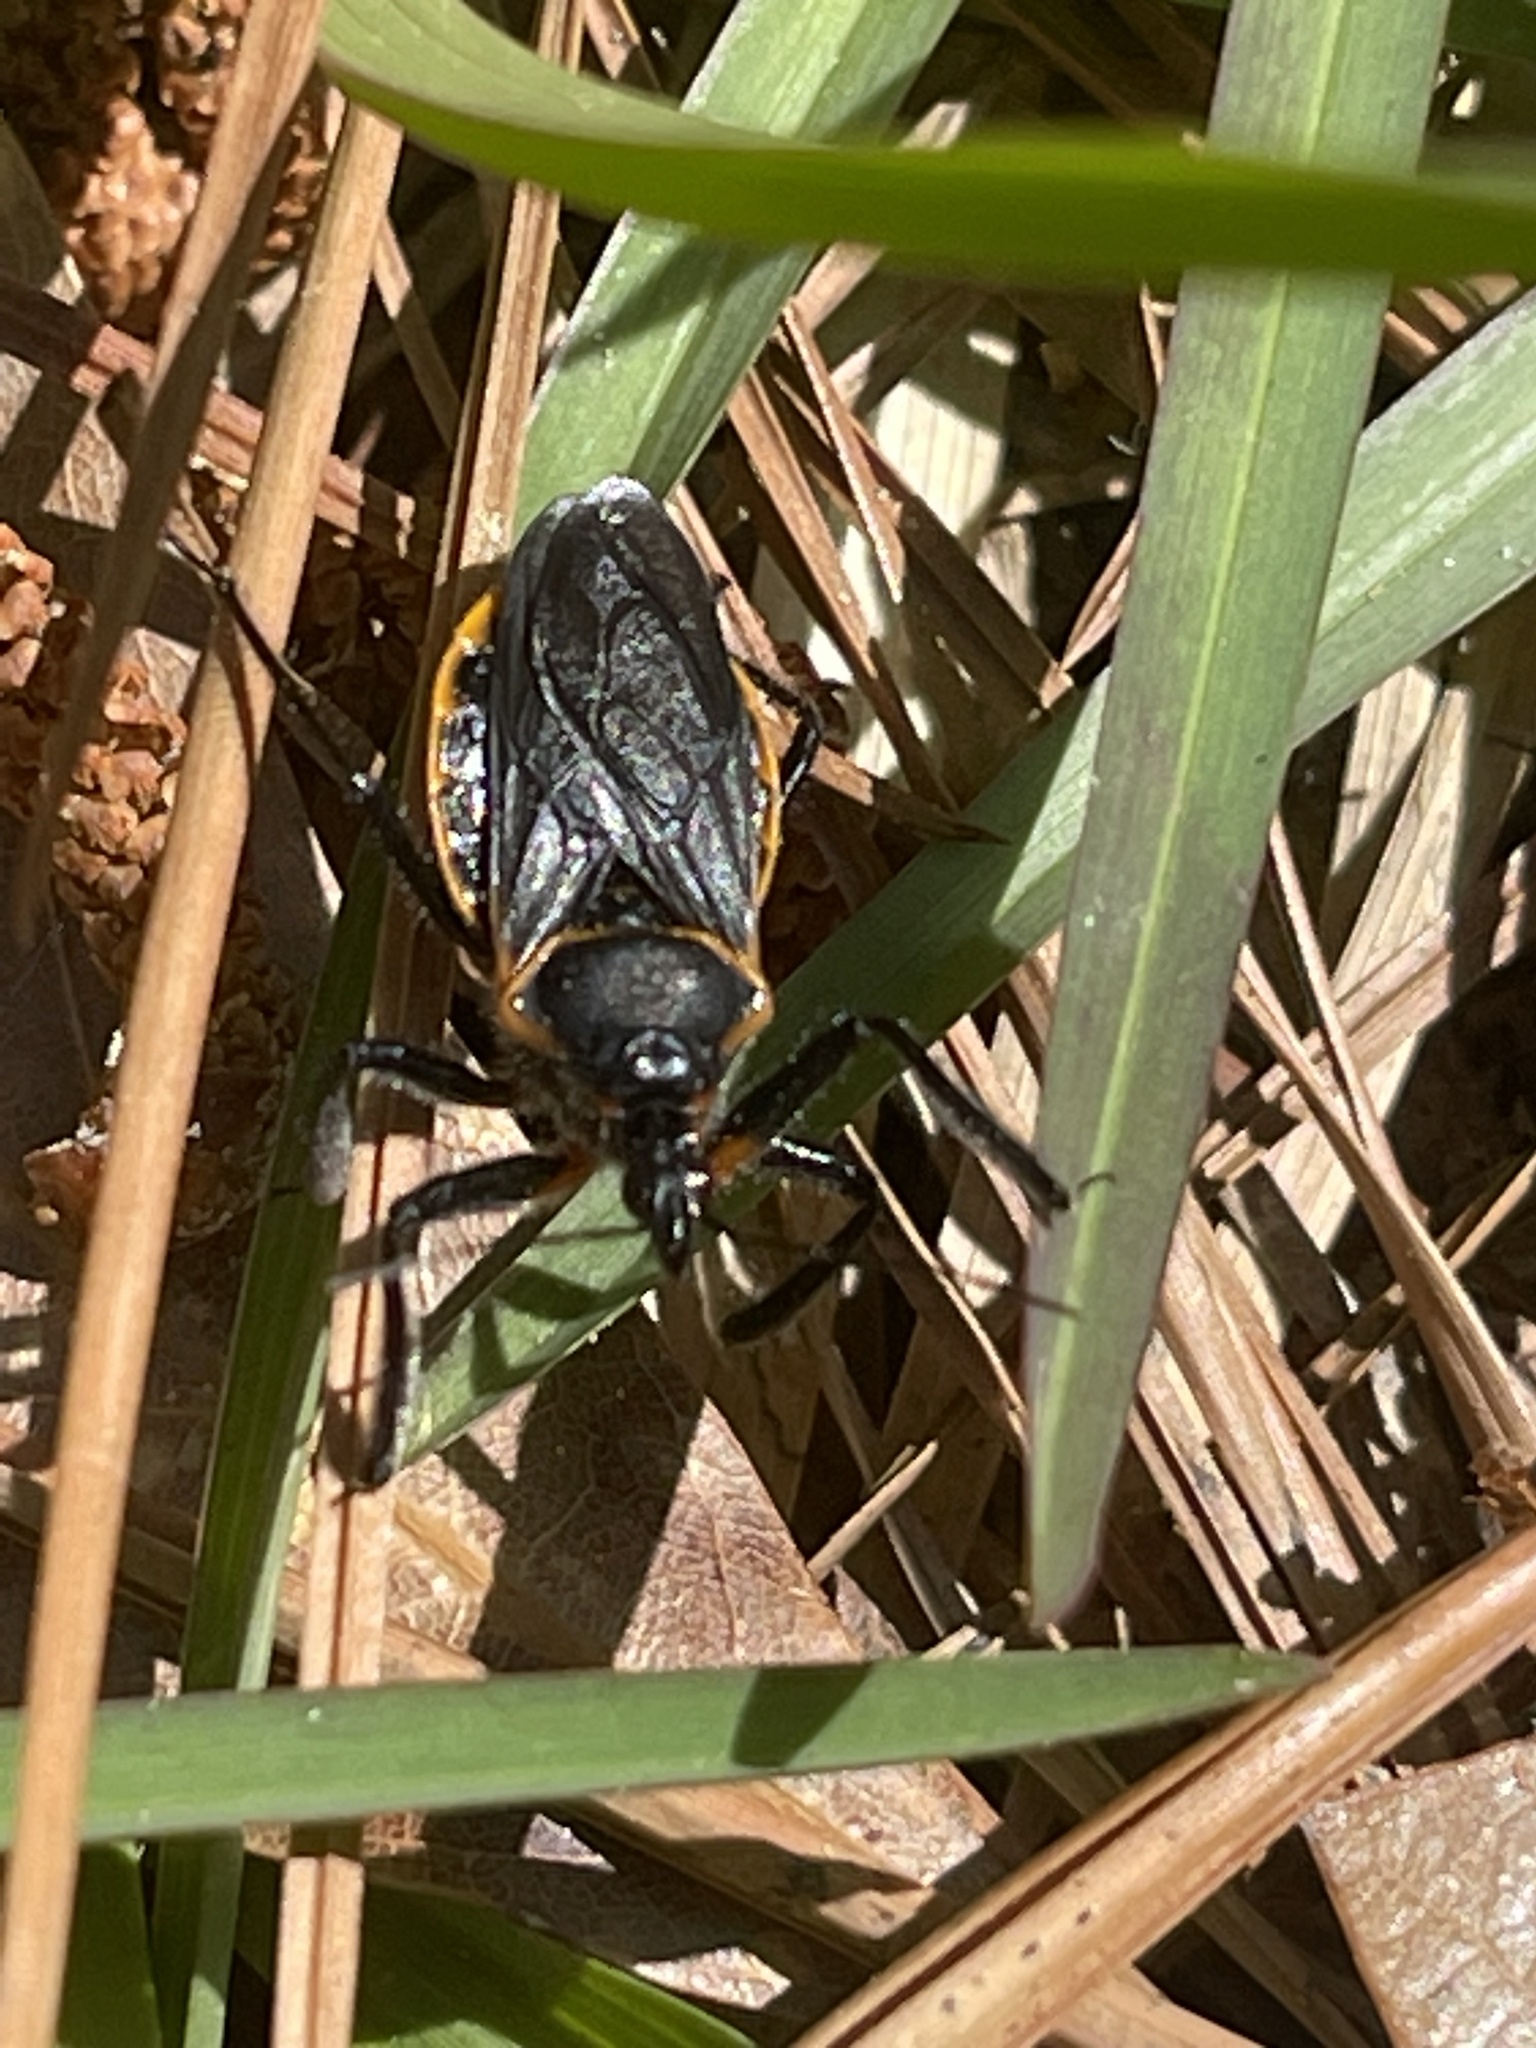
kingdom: Animalia
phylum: Arthropoda
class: Insecta
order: Hemiptera
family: Reduviidae
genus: Apiomerus
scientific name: Apiomerus crassipes
